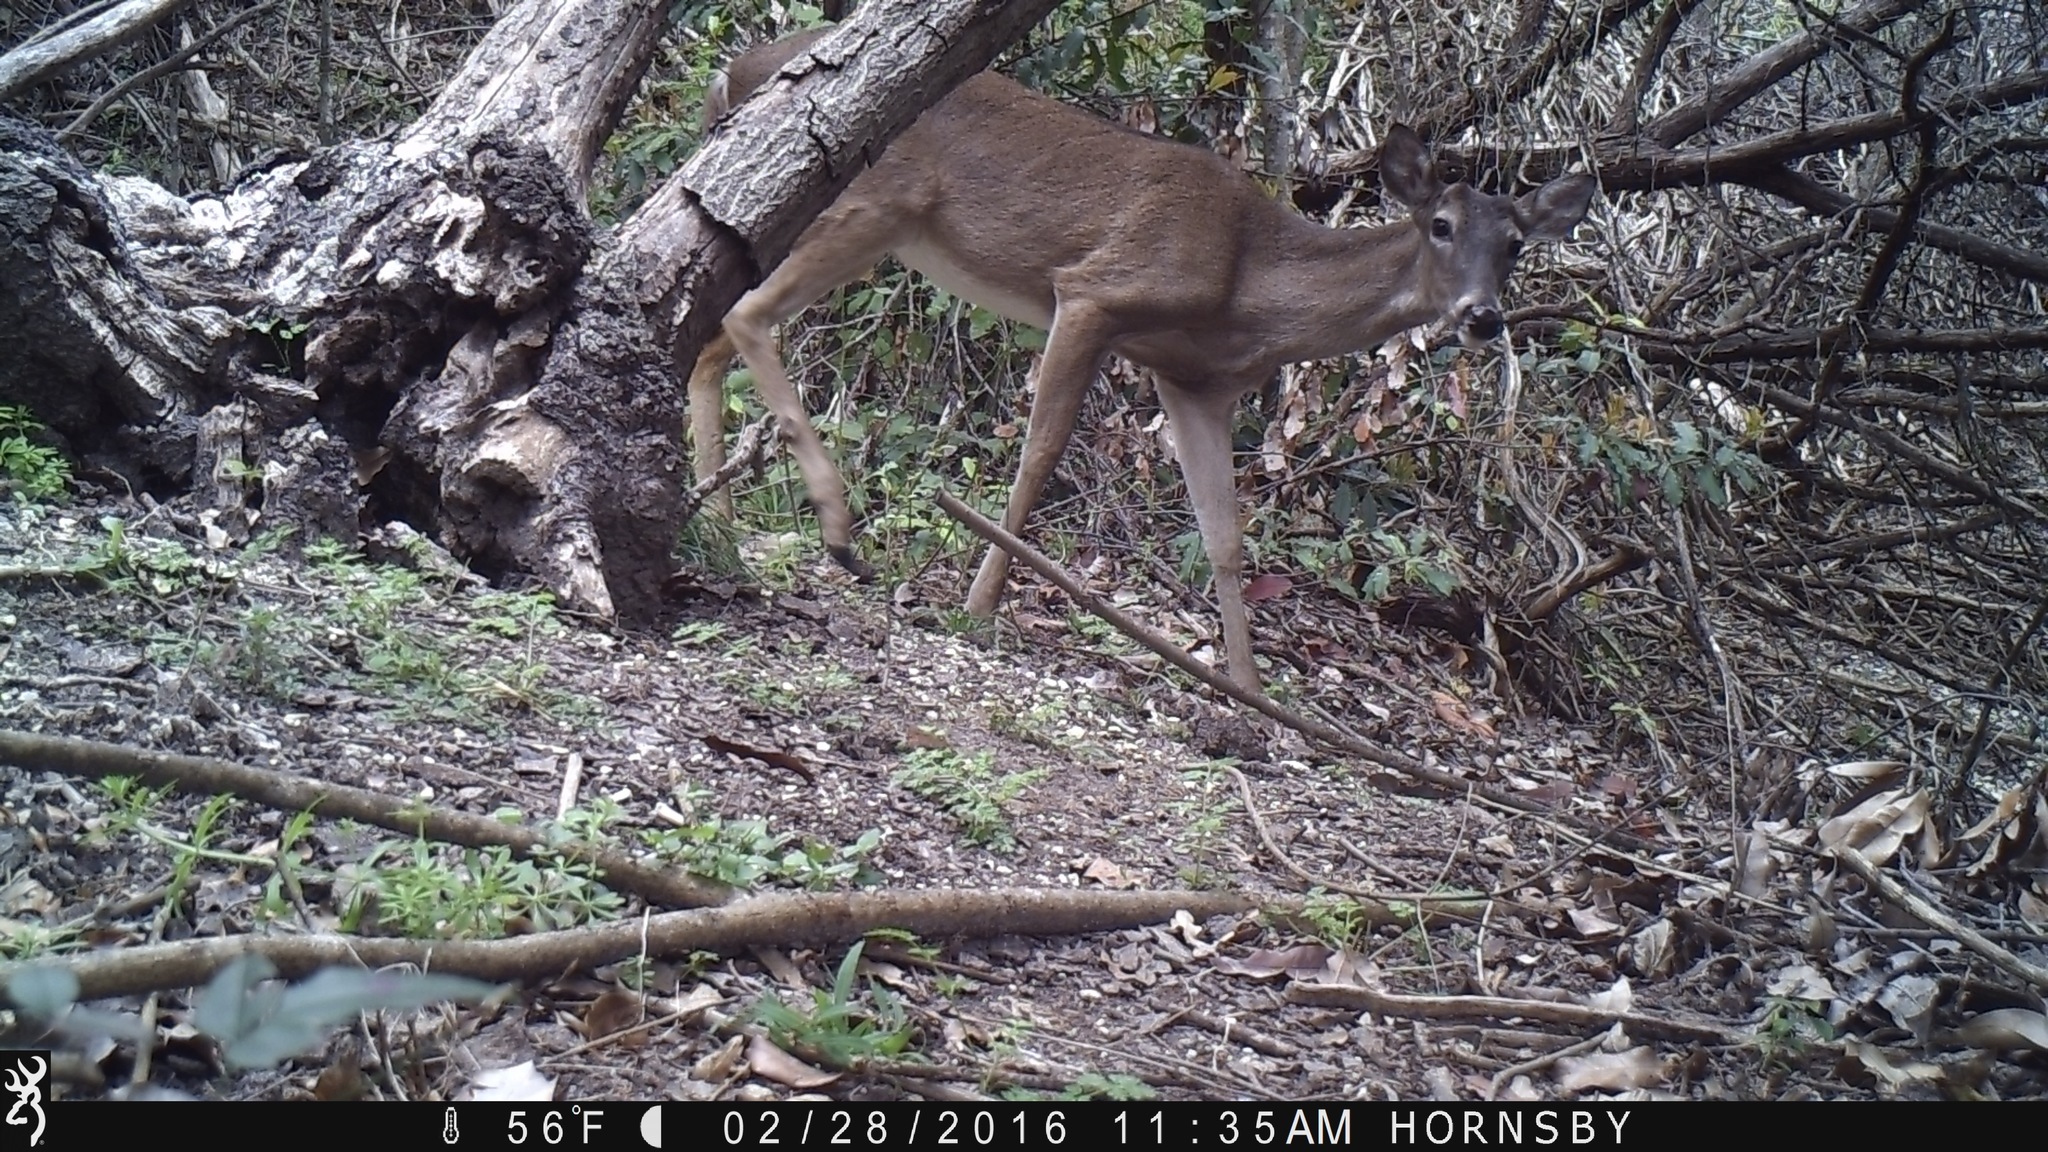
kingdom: Animalia
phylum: Chordata
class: Mammalia
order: Artiodactyla
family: Cervidae
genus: Odocoileus
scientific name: Odocoileus virginianus
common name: White-tailed deer
